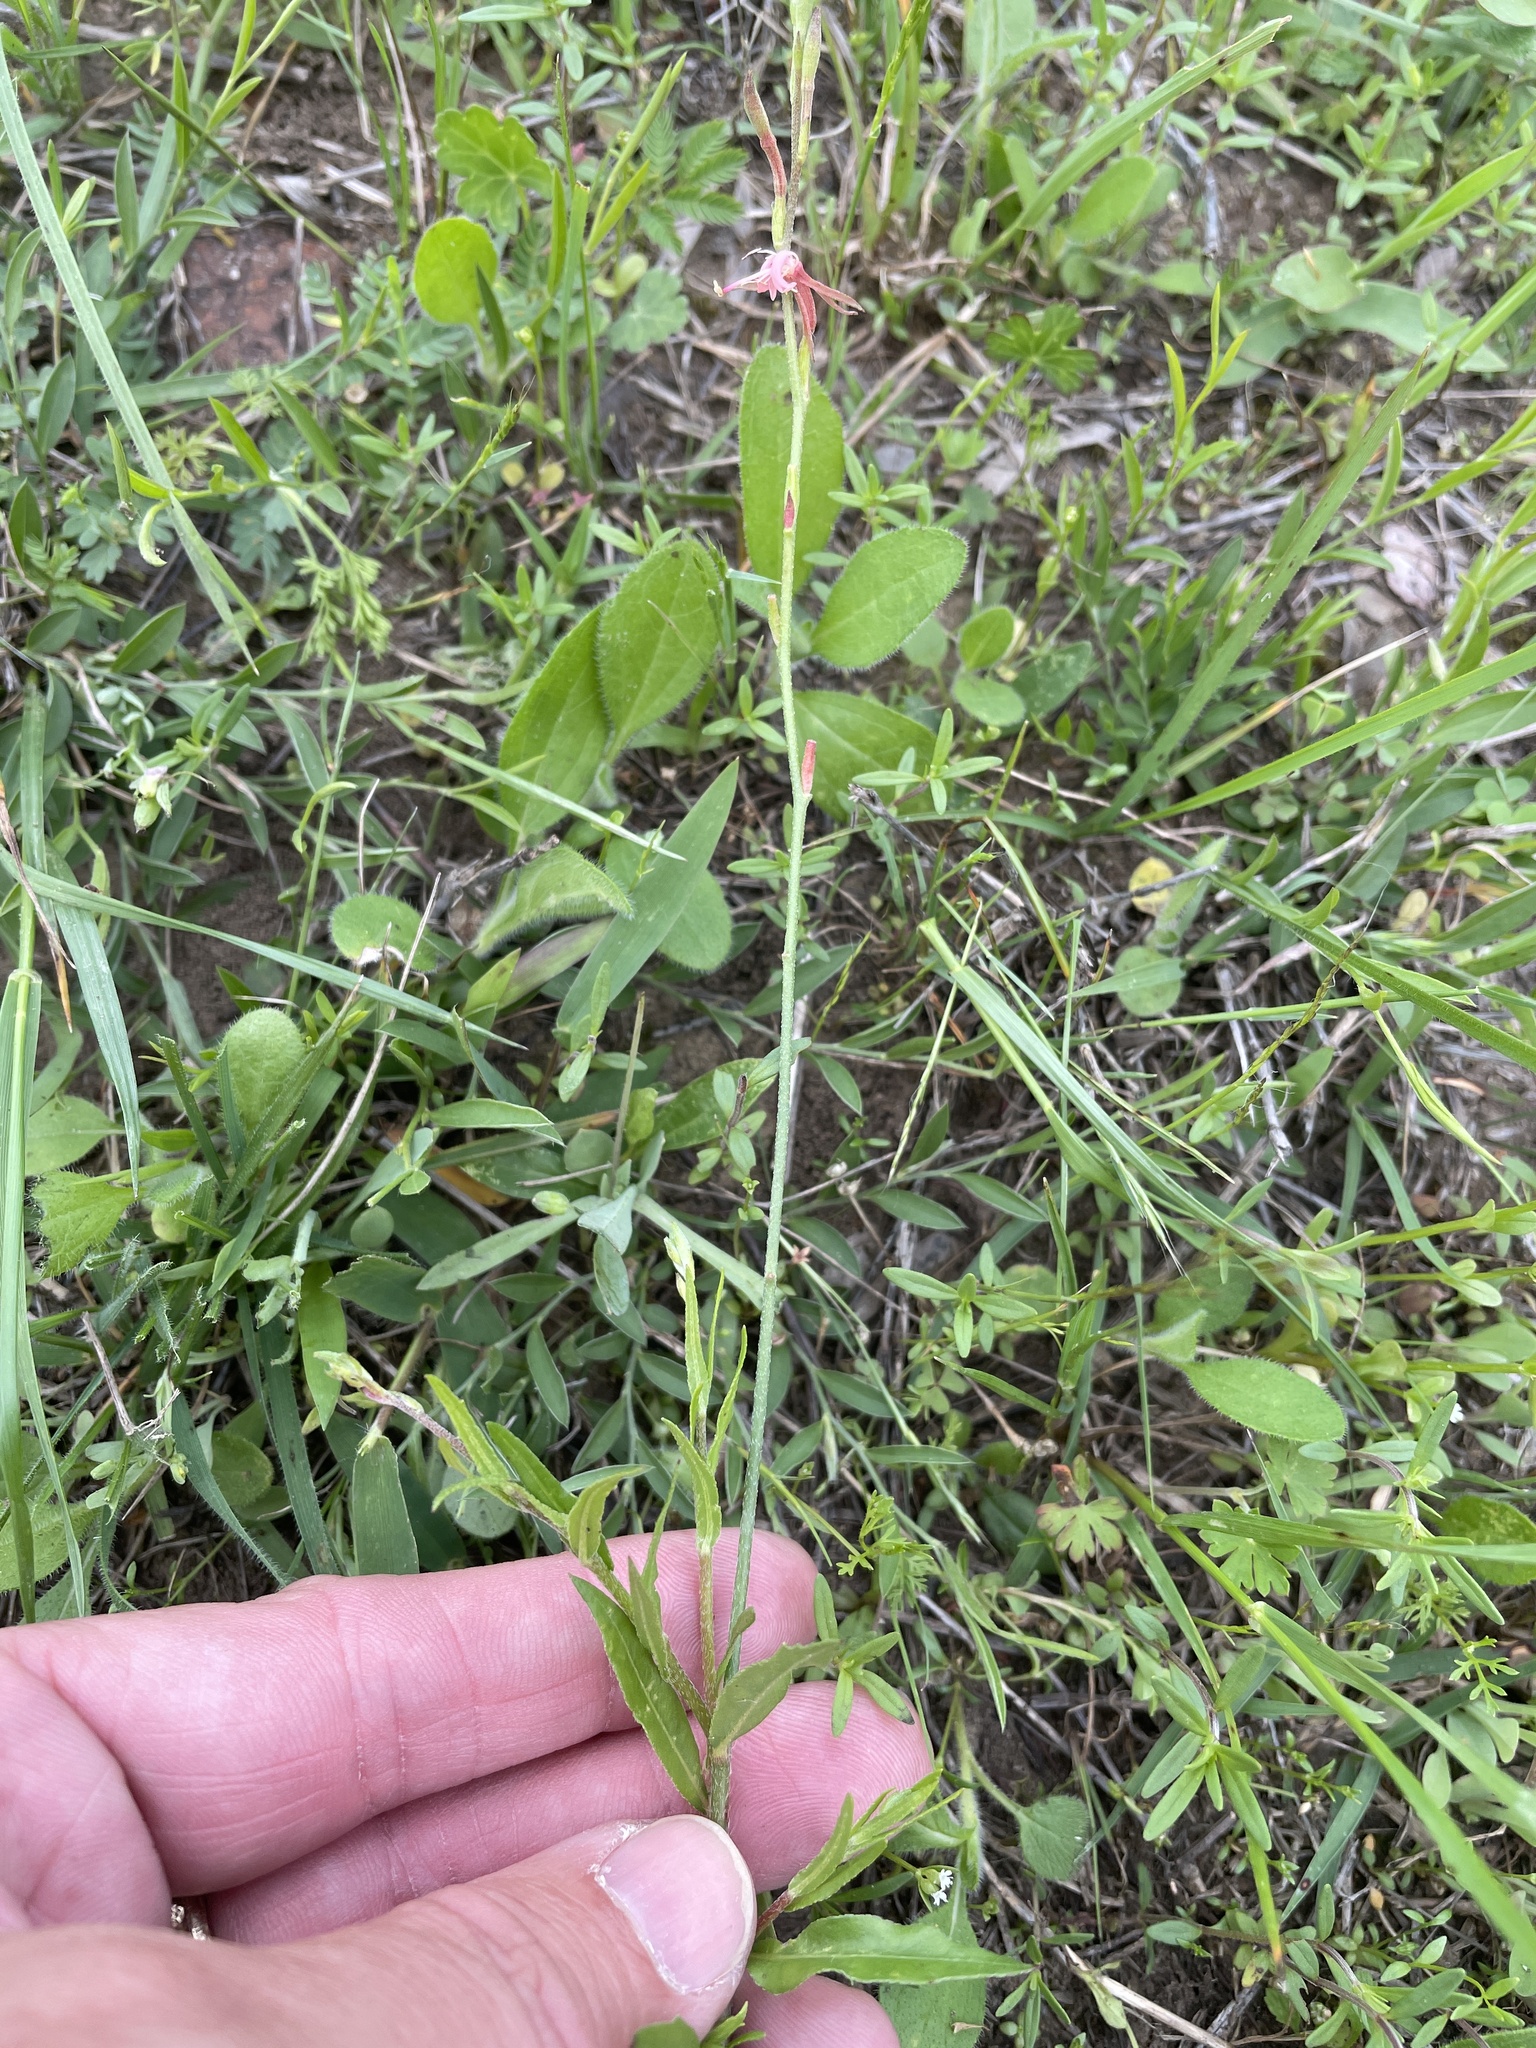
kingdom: Plantae
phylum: Tracheophyta
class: Magnoliopsida
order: Myrtales
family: Onagraceae
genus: Oenothera
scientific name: Oenothera suffulta
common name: Kisses
